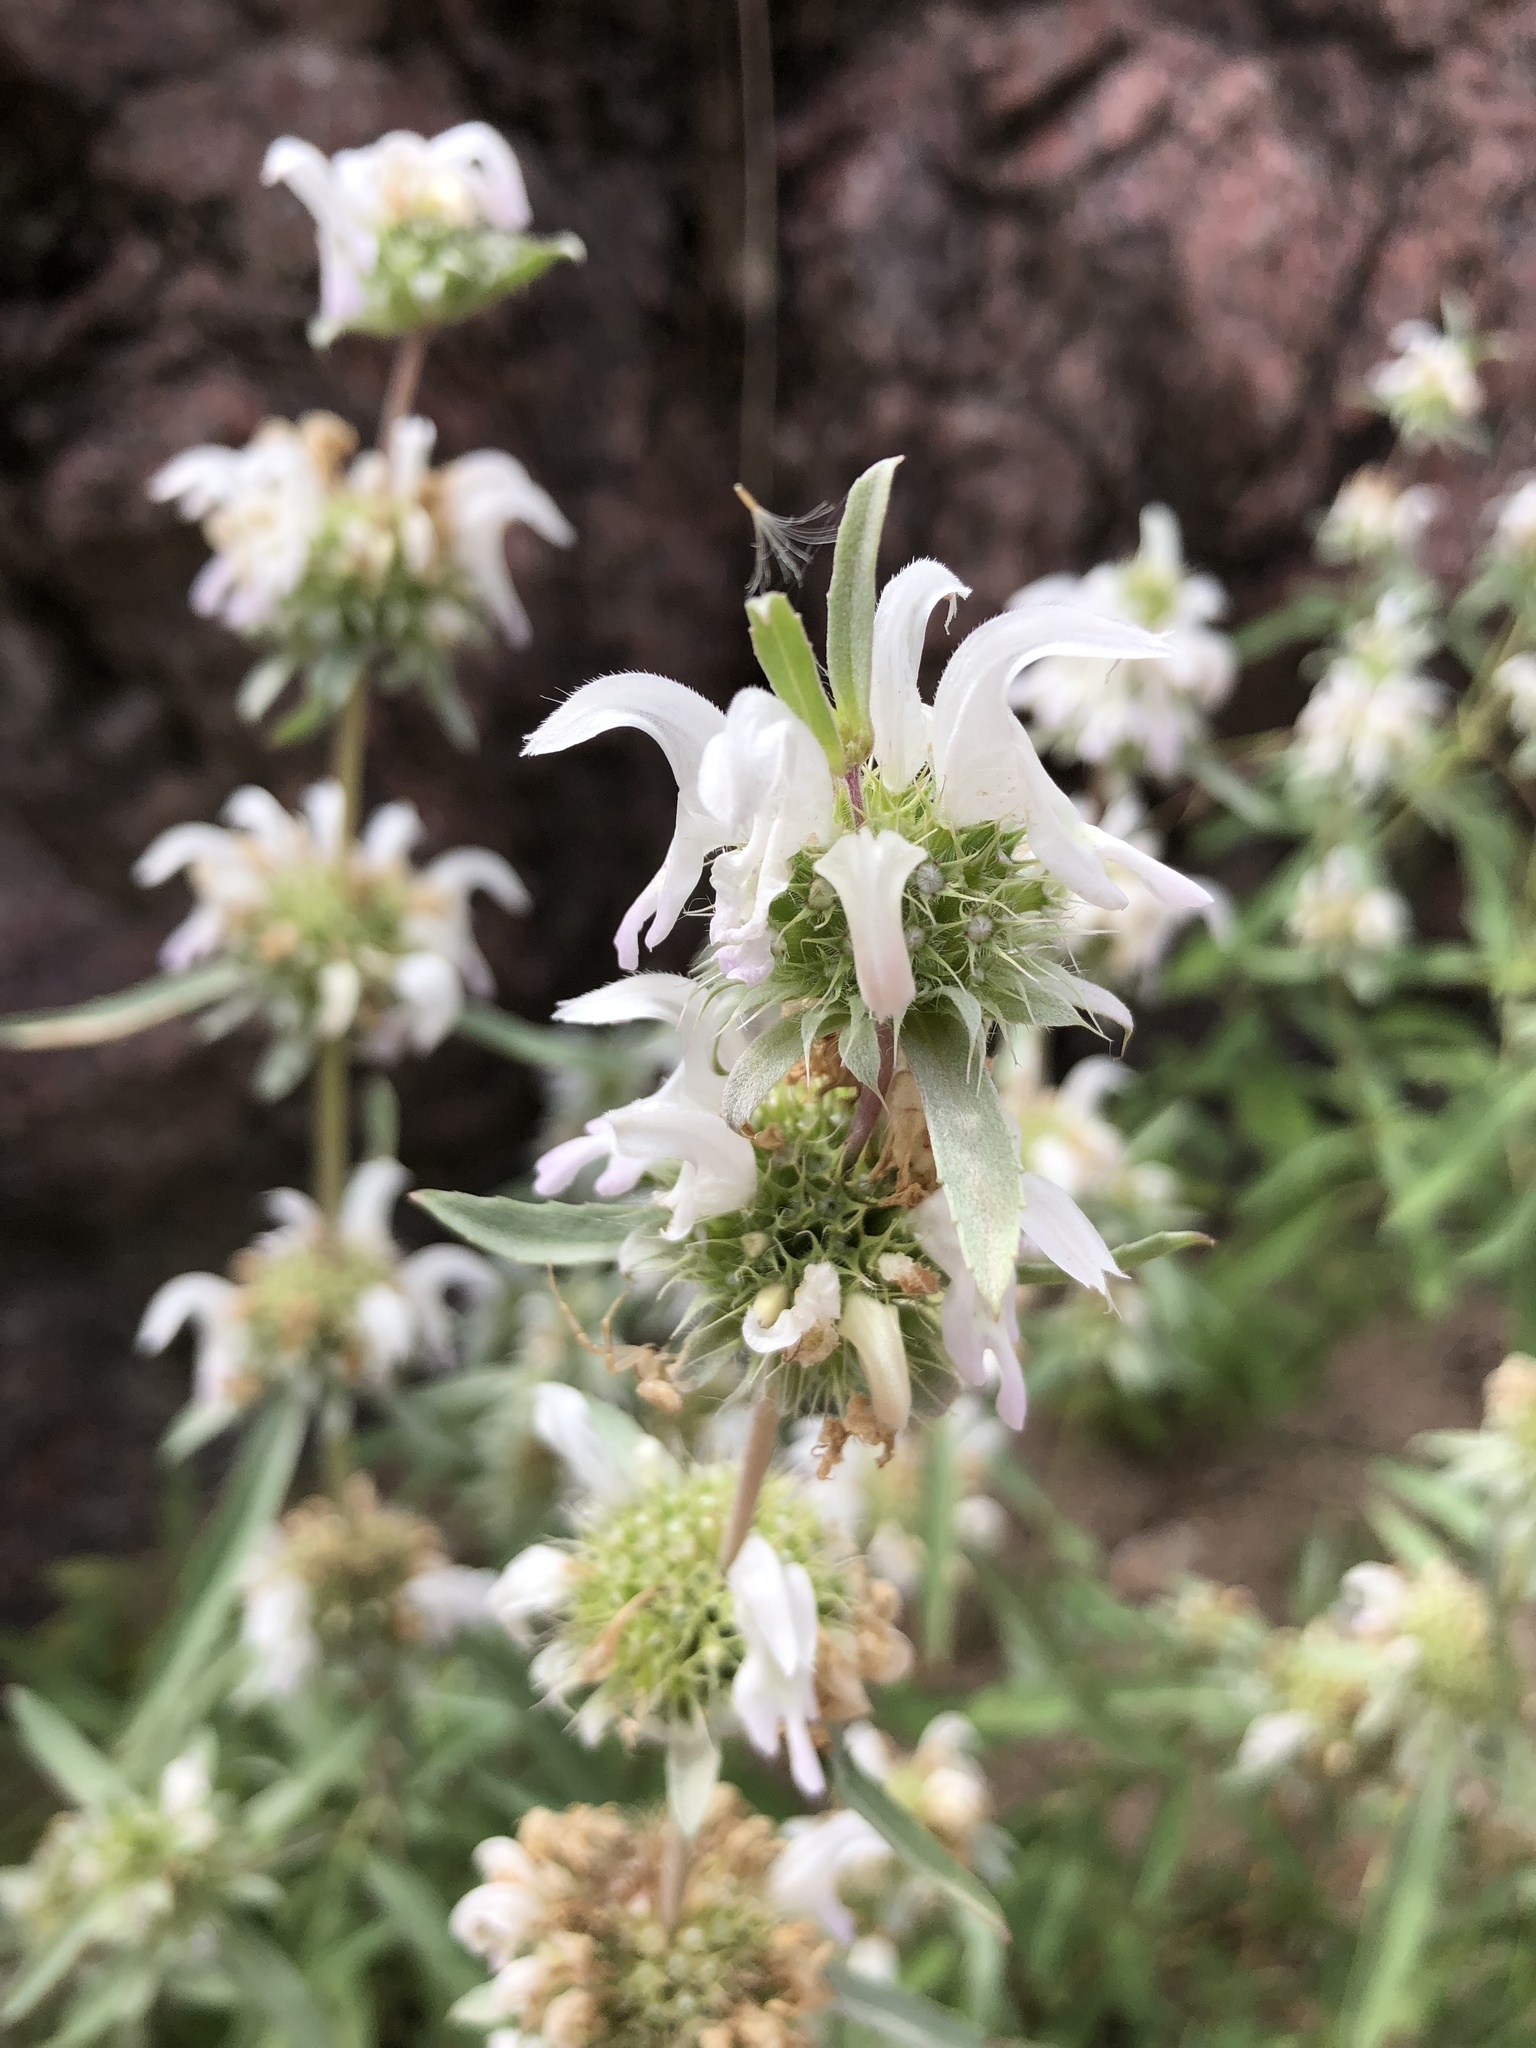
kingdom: Plantae
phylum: Tracheophyta
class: Magnoliopsida
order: Lamiales
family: Lamiaceae
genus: Monarda
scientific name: Monarda citriodora
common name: Lemon beebalm
